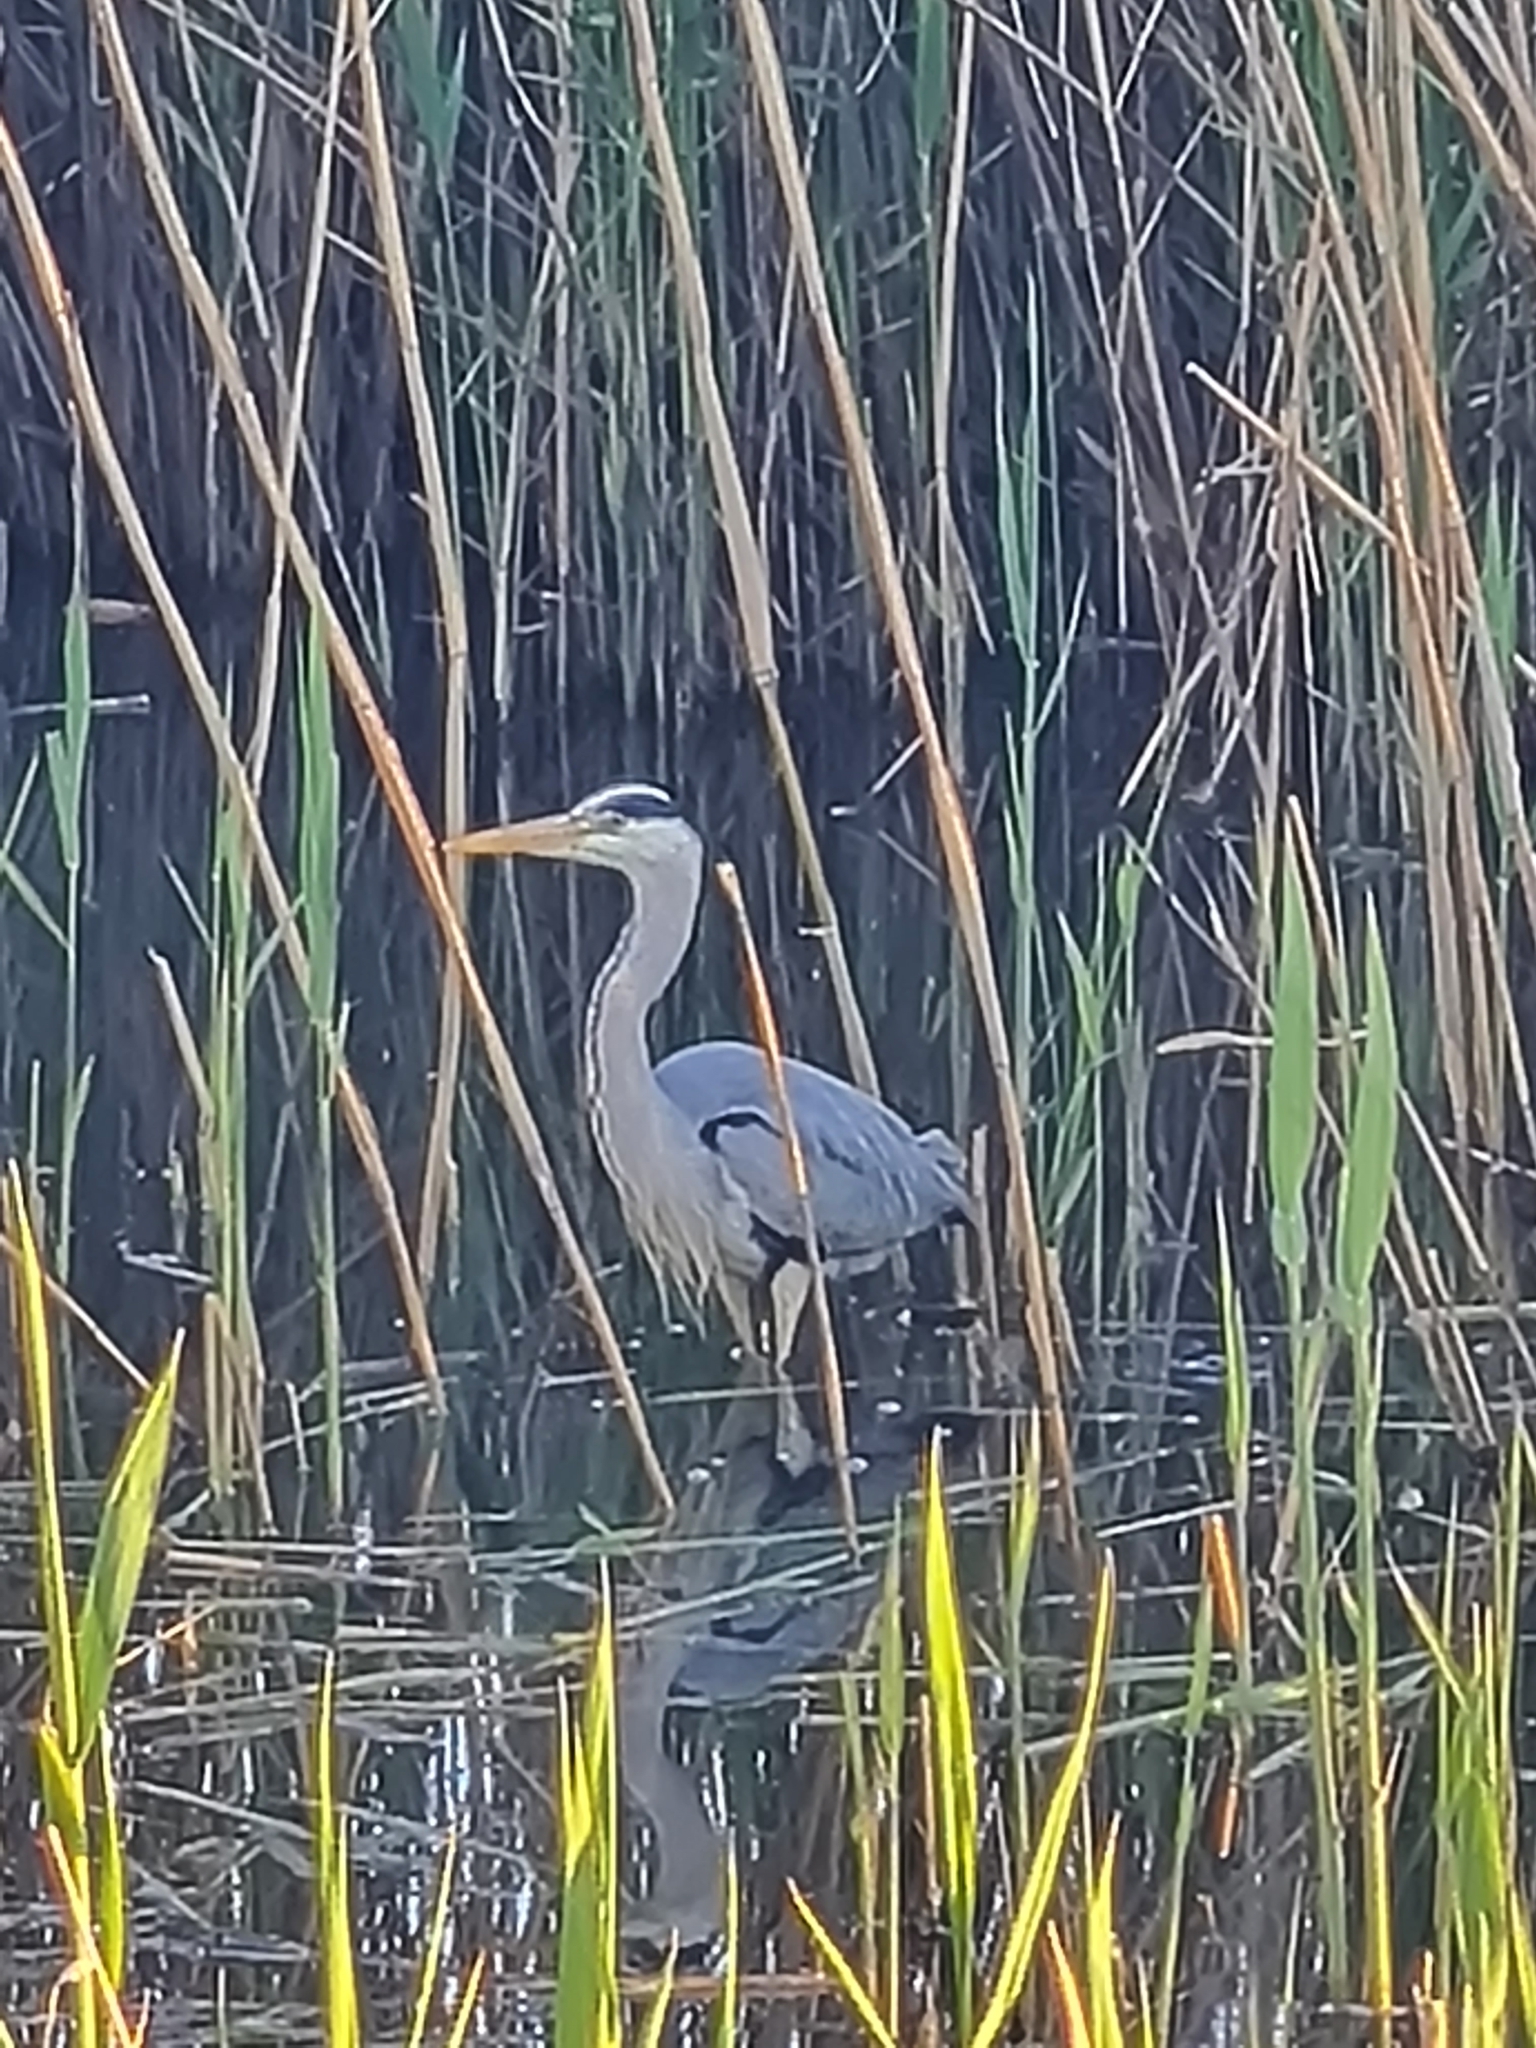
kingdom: Animalia
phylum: Chordata
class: Aves
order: Pelecaniformes
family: Ardeidae
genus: Ardea
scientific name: Ardea cinerea
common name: Grey heron
